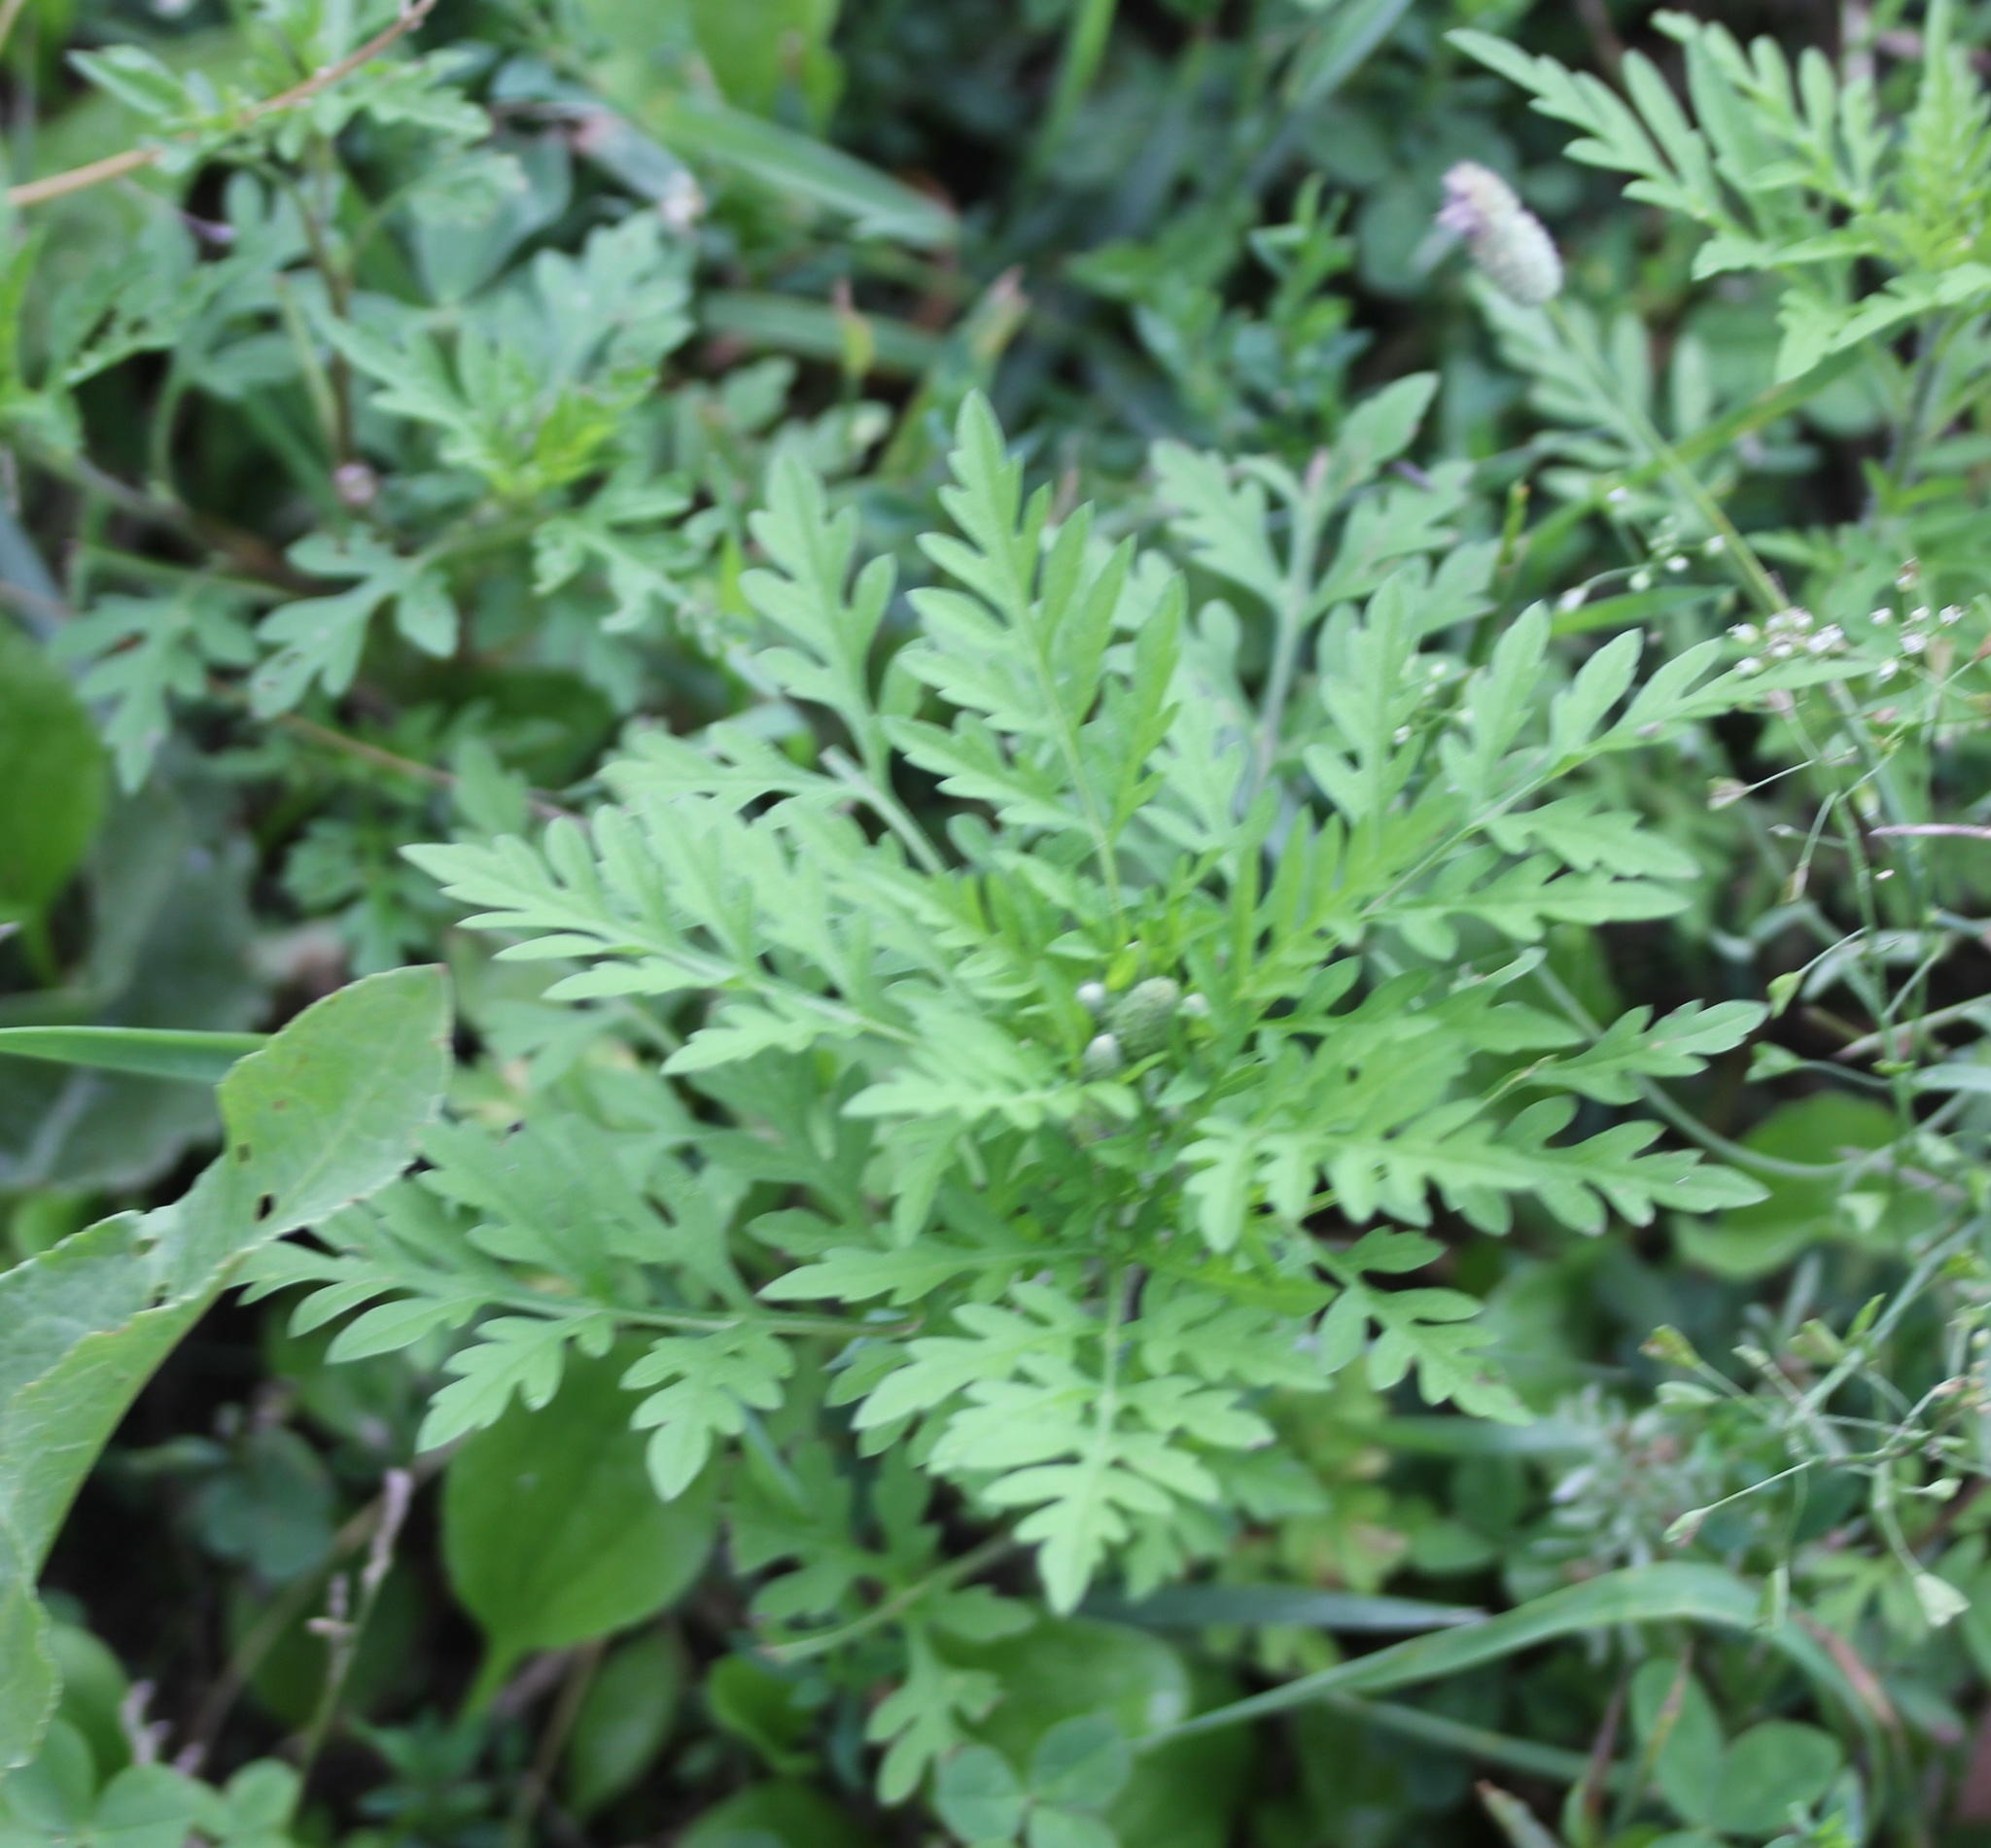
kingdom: Plantae
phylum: Tracheophyta
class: Magnoliopsida
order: Asterales
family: Asteraceae
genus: Ambrosia
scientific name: Ambrosia artemisiifolia
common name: Annual ragweed
